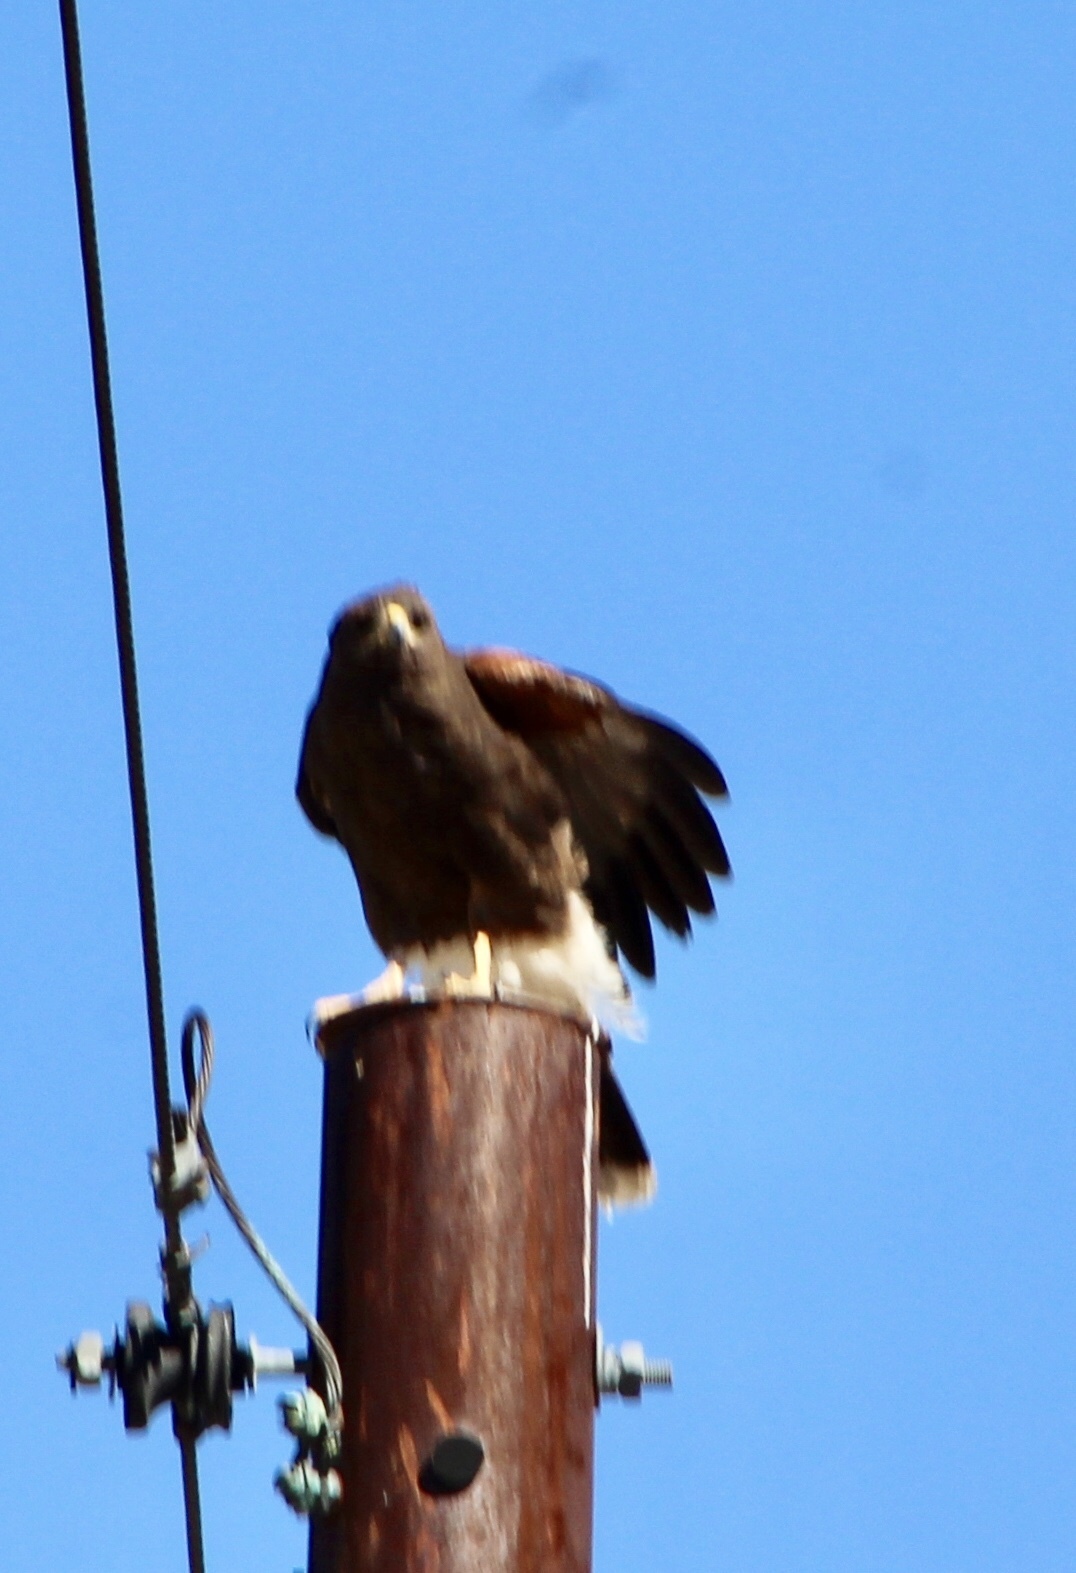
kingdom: Animalia
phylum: Chordata
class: Aves
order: Accipitriformes
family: Accipitridae
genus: Parabuteo
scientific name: Parabuteo unicinctus
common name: Harris's hawk
